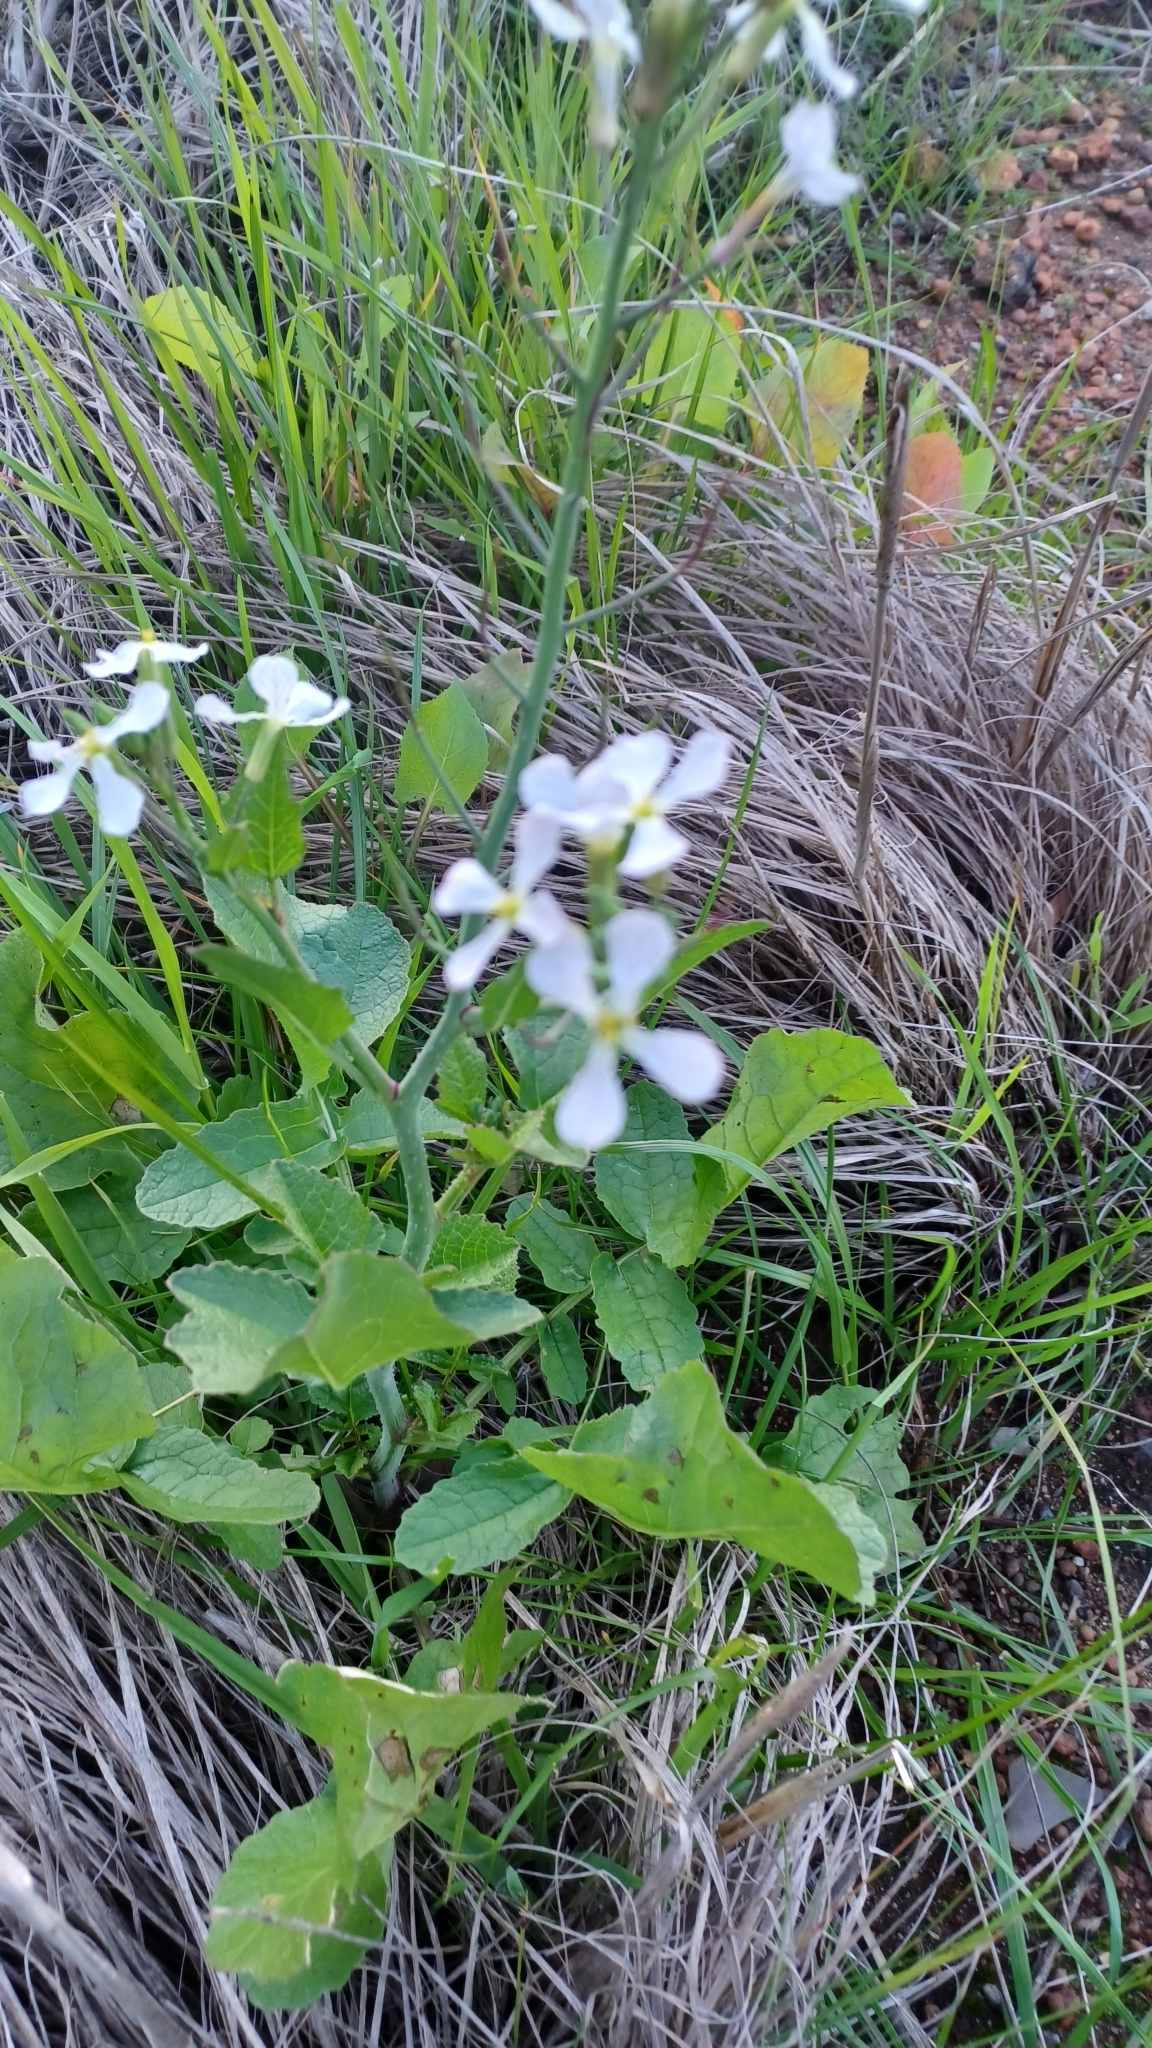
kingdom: Plantae
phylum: Tracheophyta
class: Magnoliopsida
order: Brassicales
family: Brassicaceae
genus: Raphanus
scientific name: Raphanus raphanistrum
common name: Wild radish
